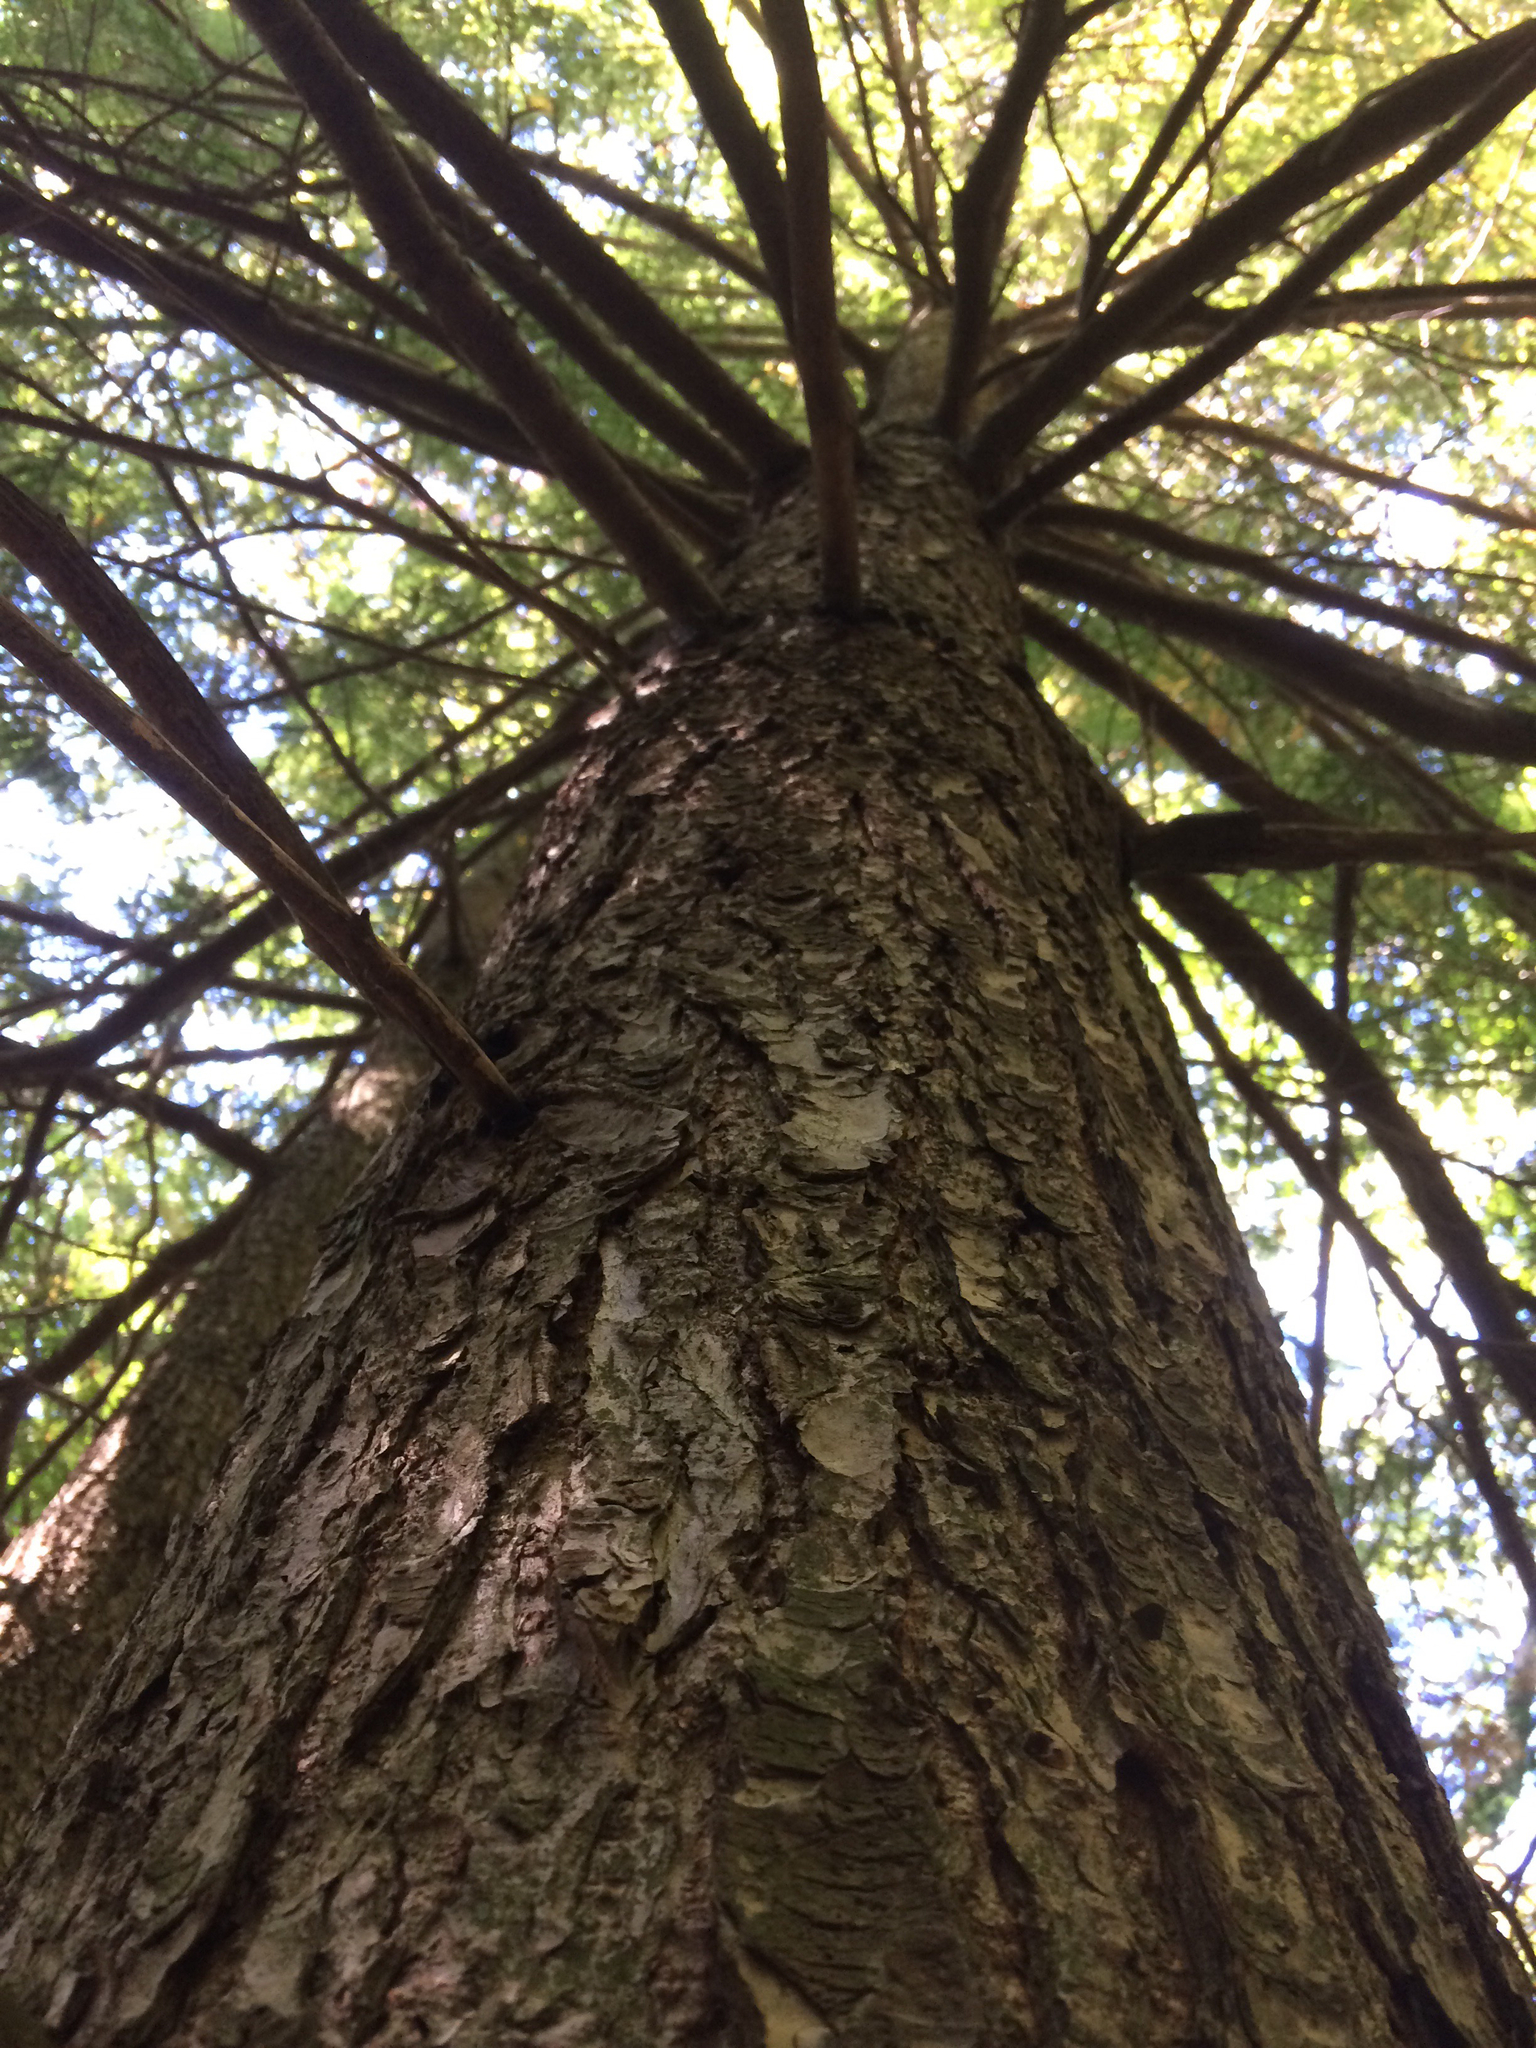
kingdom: Plantae
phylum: Tracheophyta
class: Pinopsida
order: Pinales
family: Pinaceae
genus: Tsuga
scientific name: Tsuga canadensis
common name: Eastern hemlock
